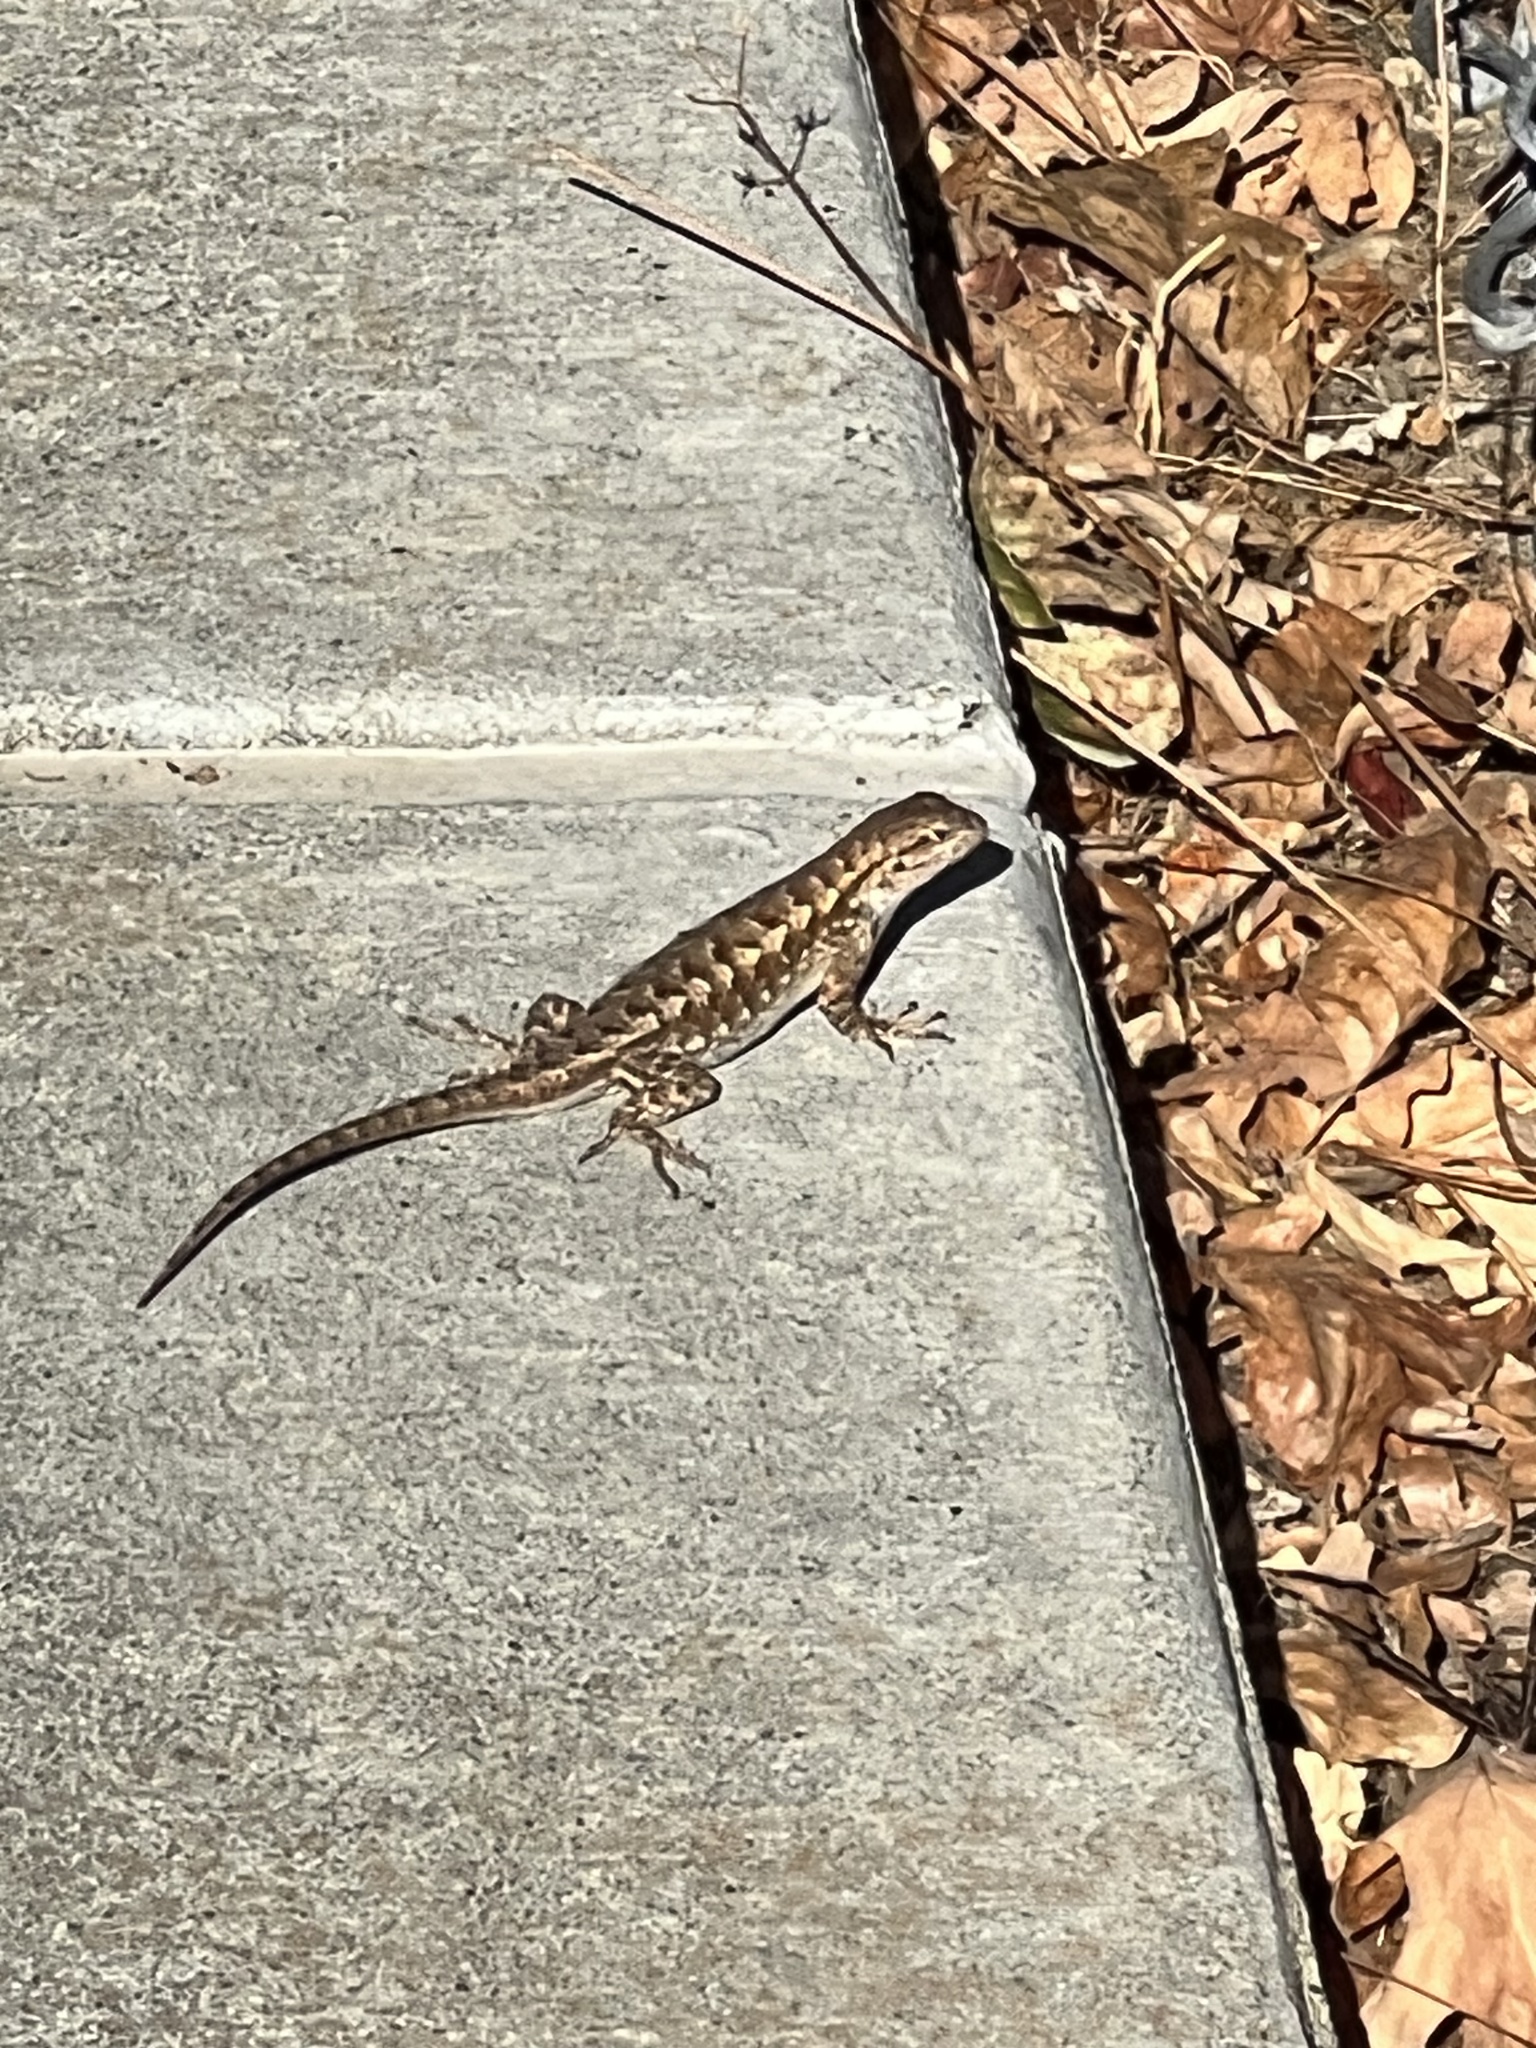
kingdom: Animalia
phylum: Chordata
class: Squamata
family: Phrynosomatidae
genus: Sceloporus
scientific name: Sceloporus occidentalis
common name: Western fence lizard
